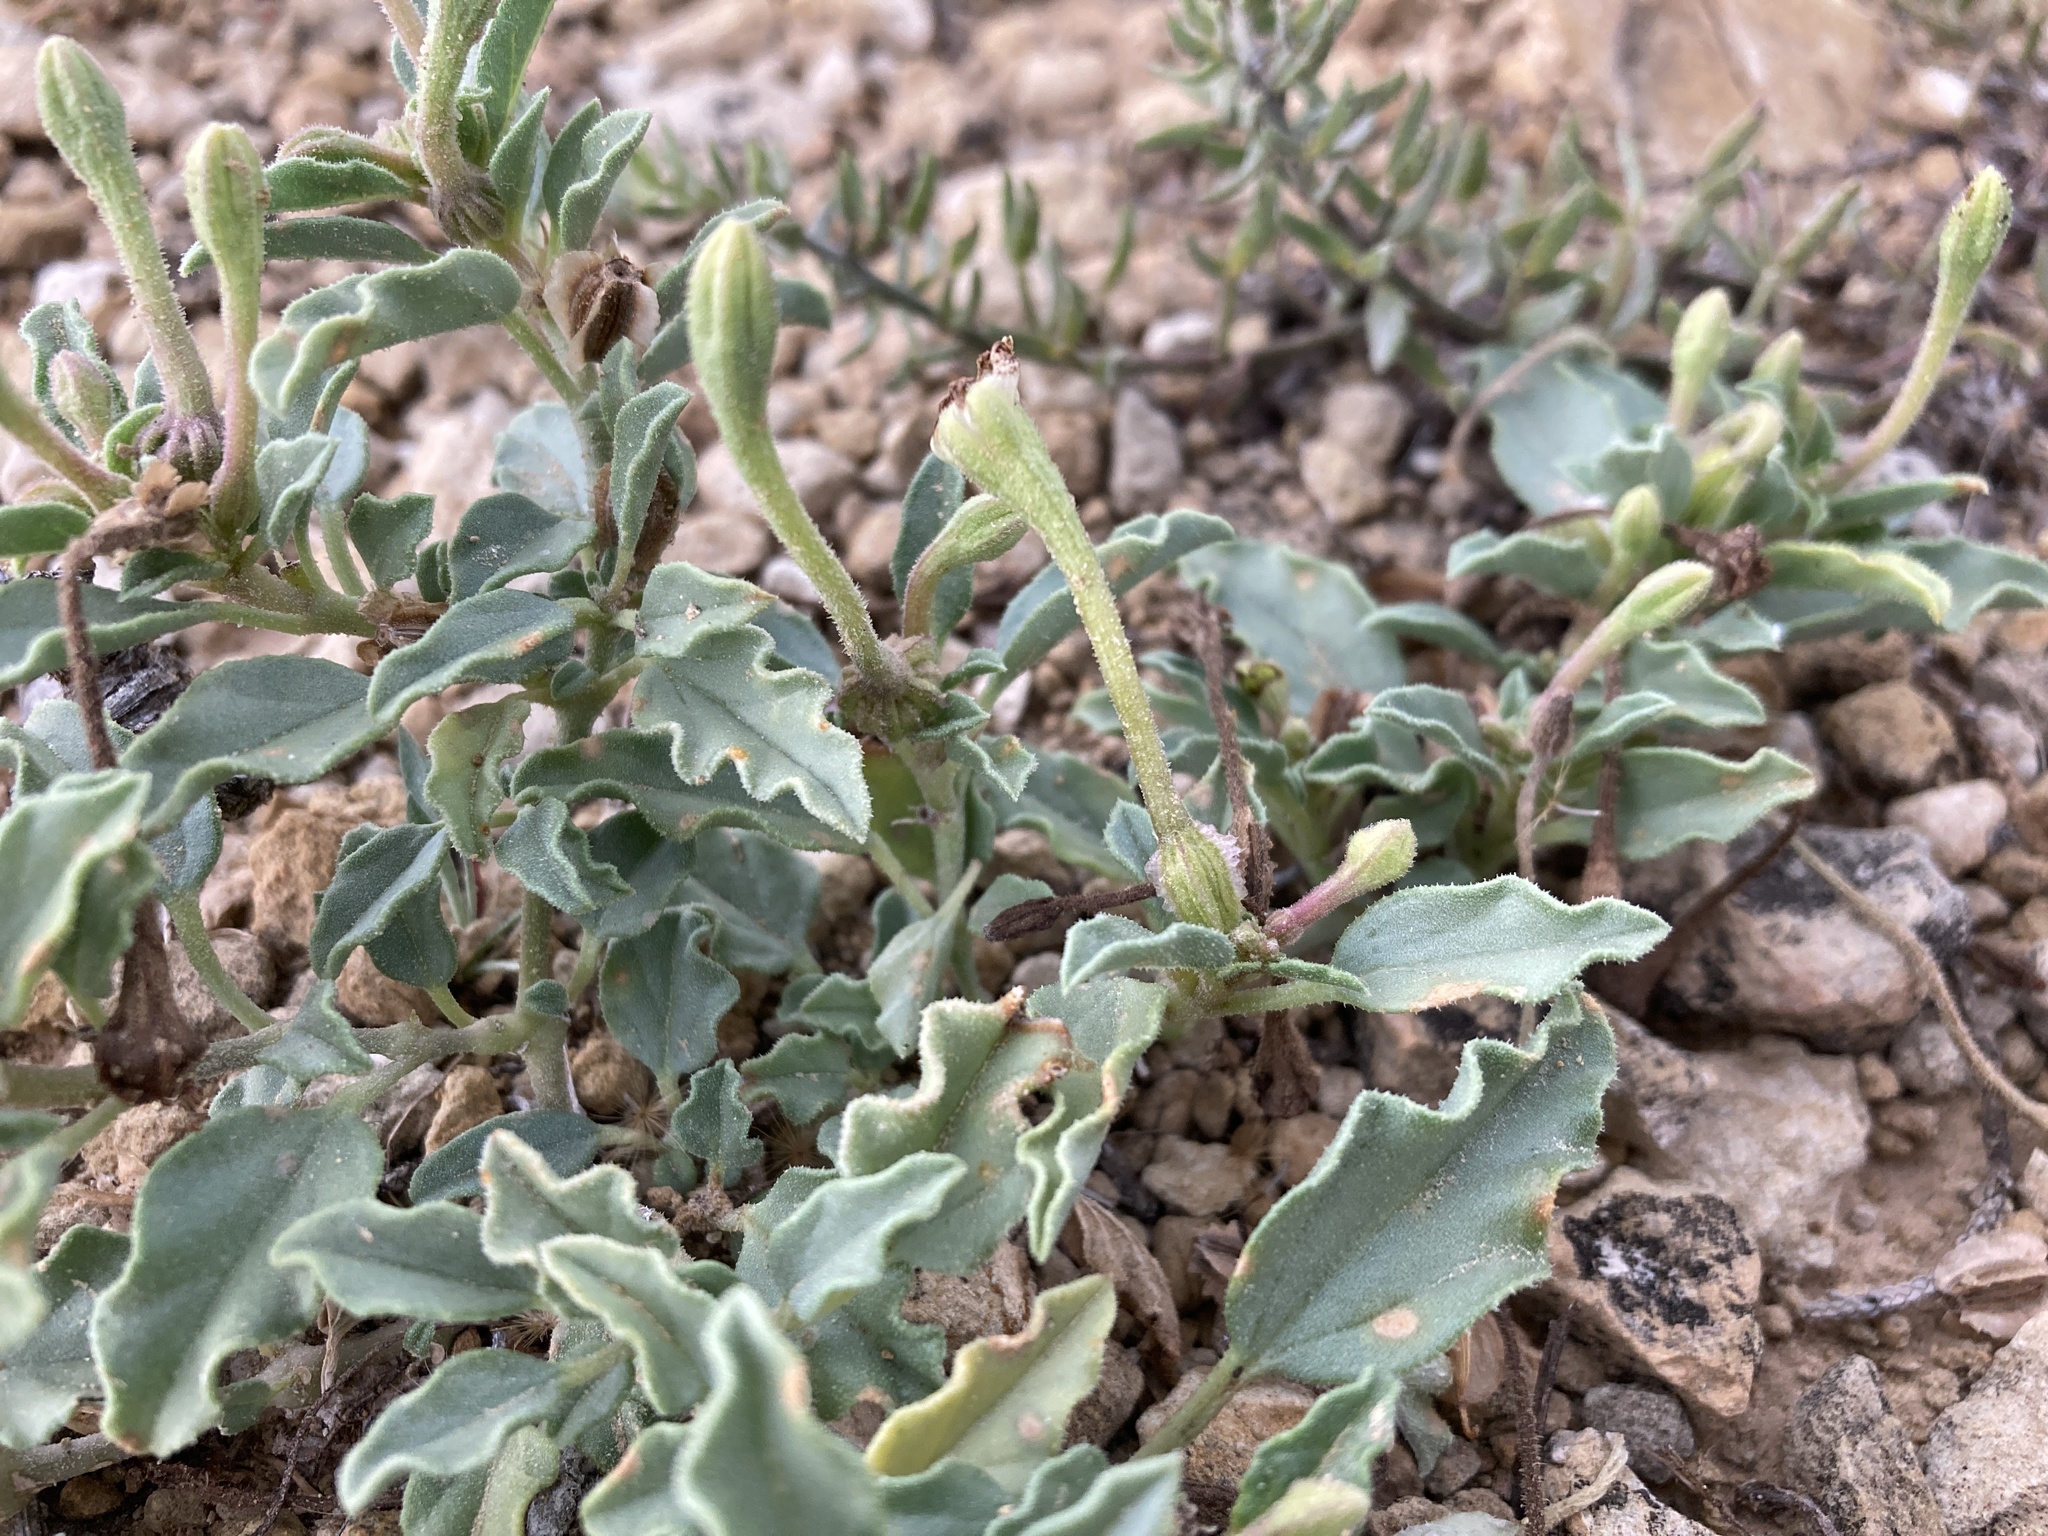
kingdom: Plantae
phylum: Tracheophyta
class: Magnoliopsida
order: Caryophyllales
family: Nyctaginaceae
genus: Acleisanthes
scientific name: Acleisanthes diffusa
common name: Spreading moonpod
